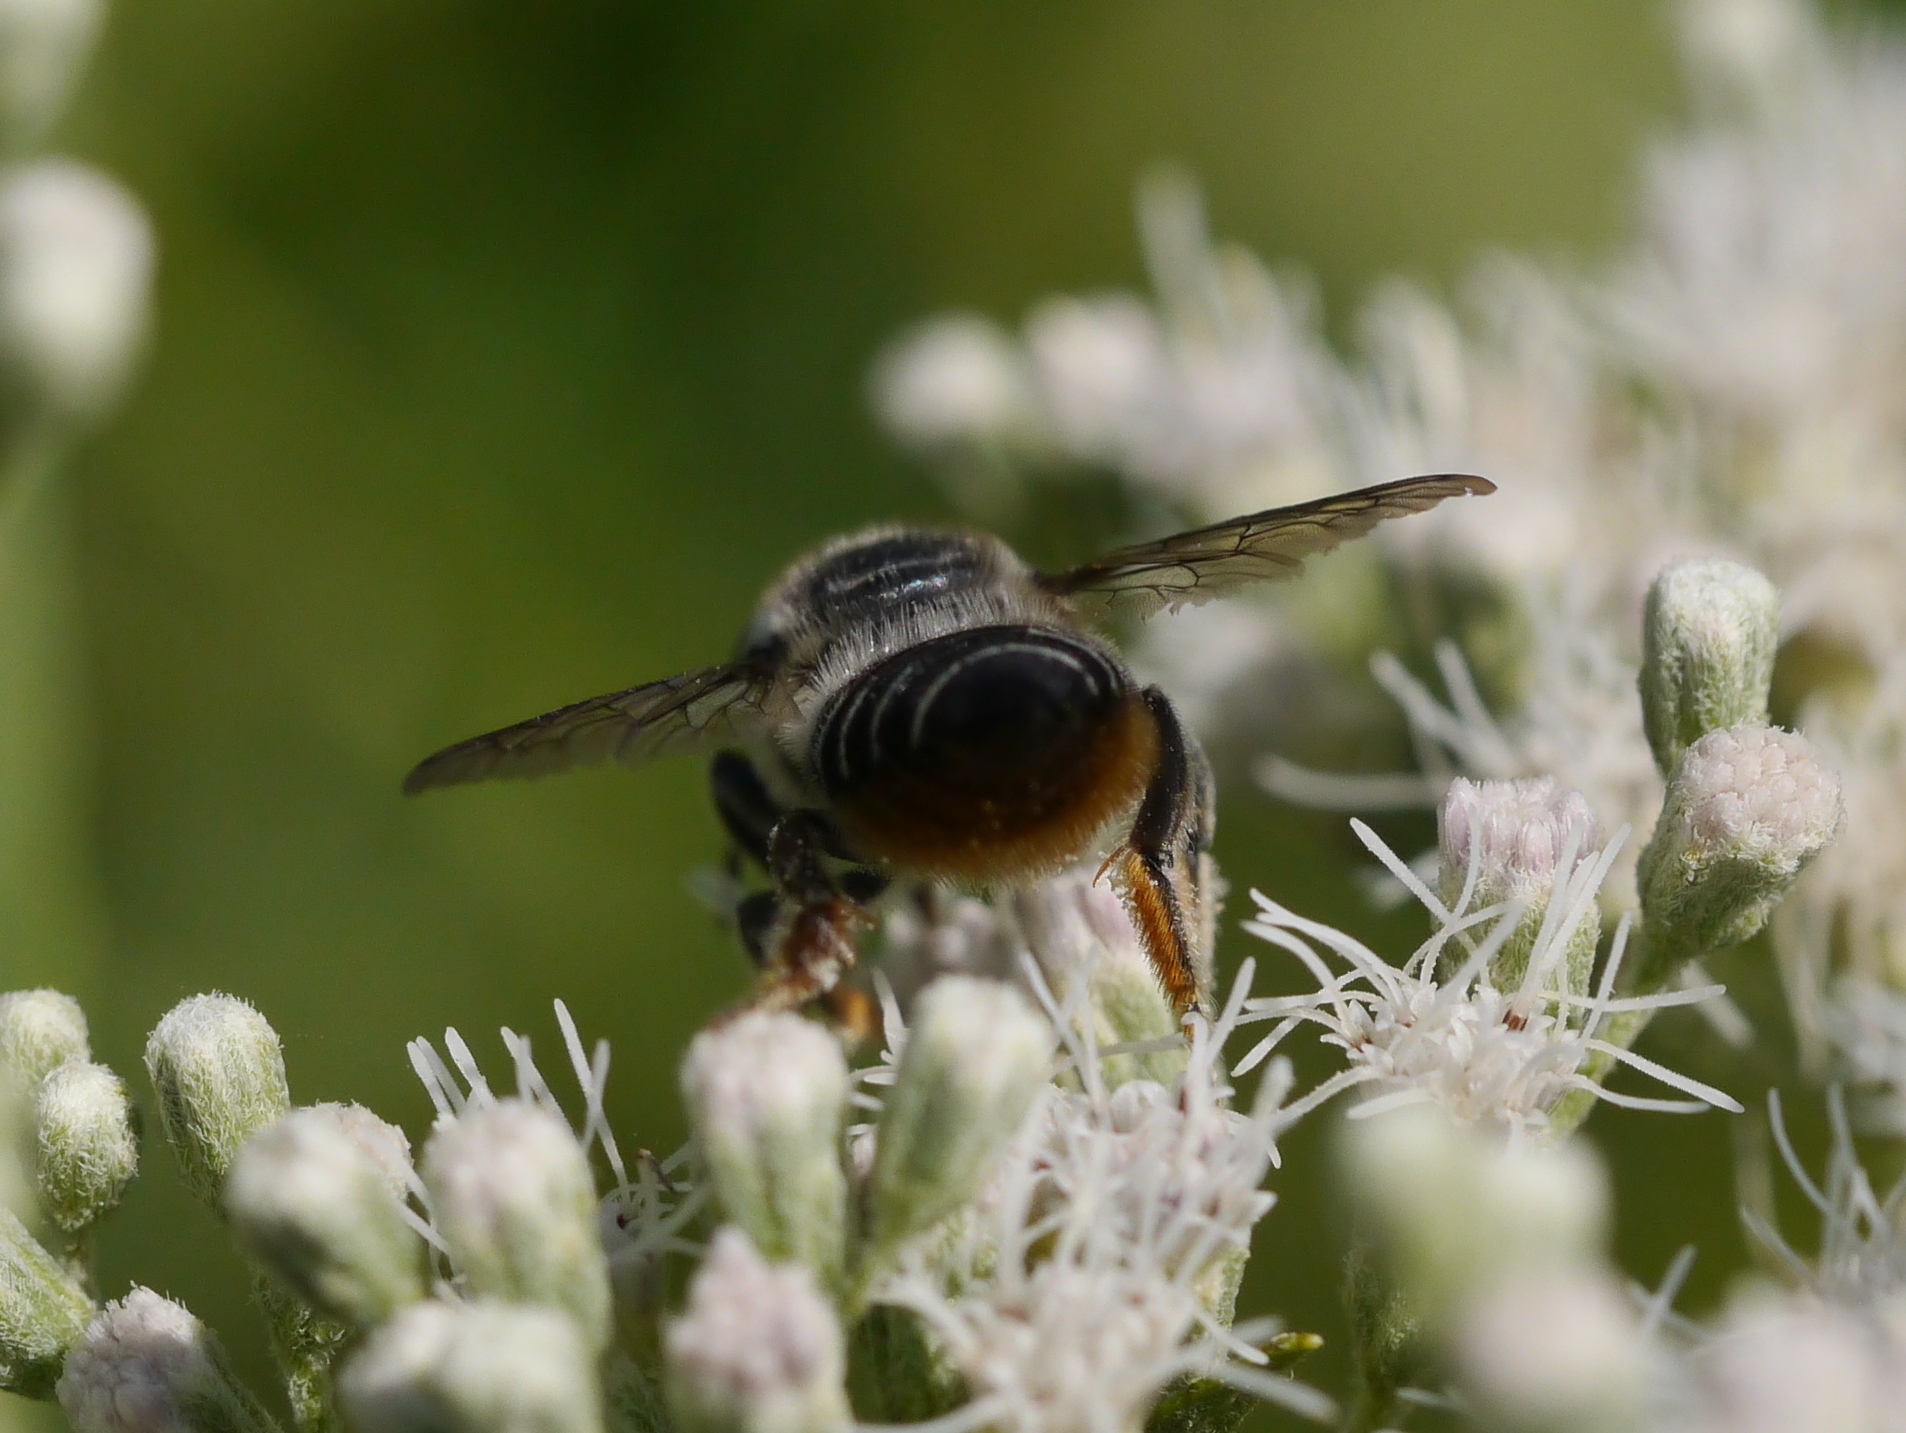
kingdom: Animalia
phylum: Arthropoda
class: Insecta
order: Hymenoptera
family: Megachilidae
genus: Megachile
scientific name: Megachile mendica
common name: Flat-tailed leafcutter
